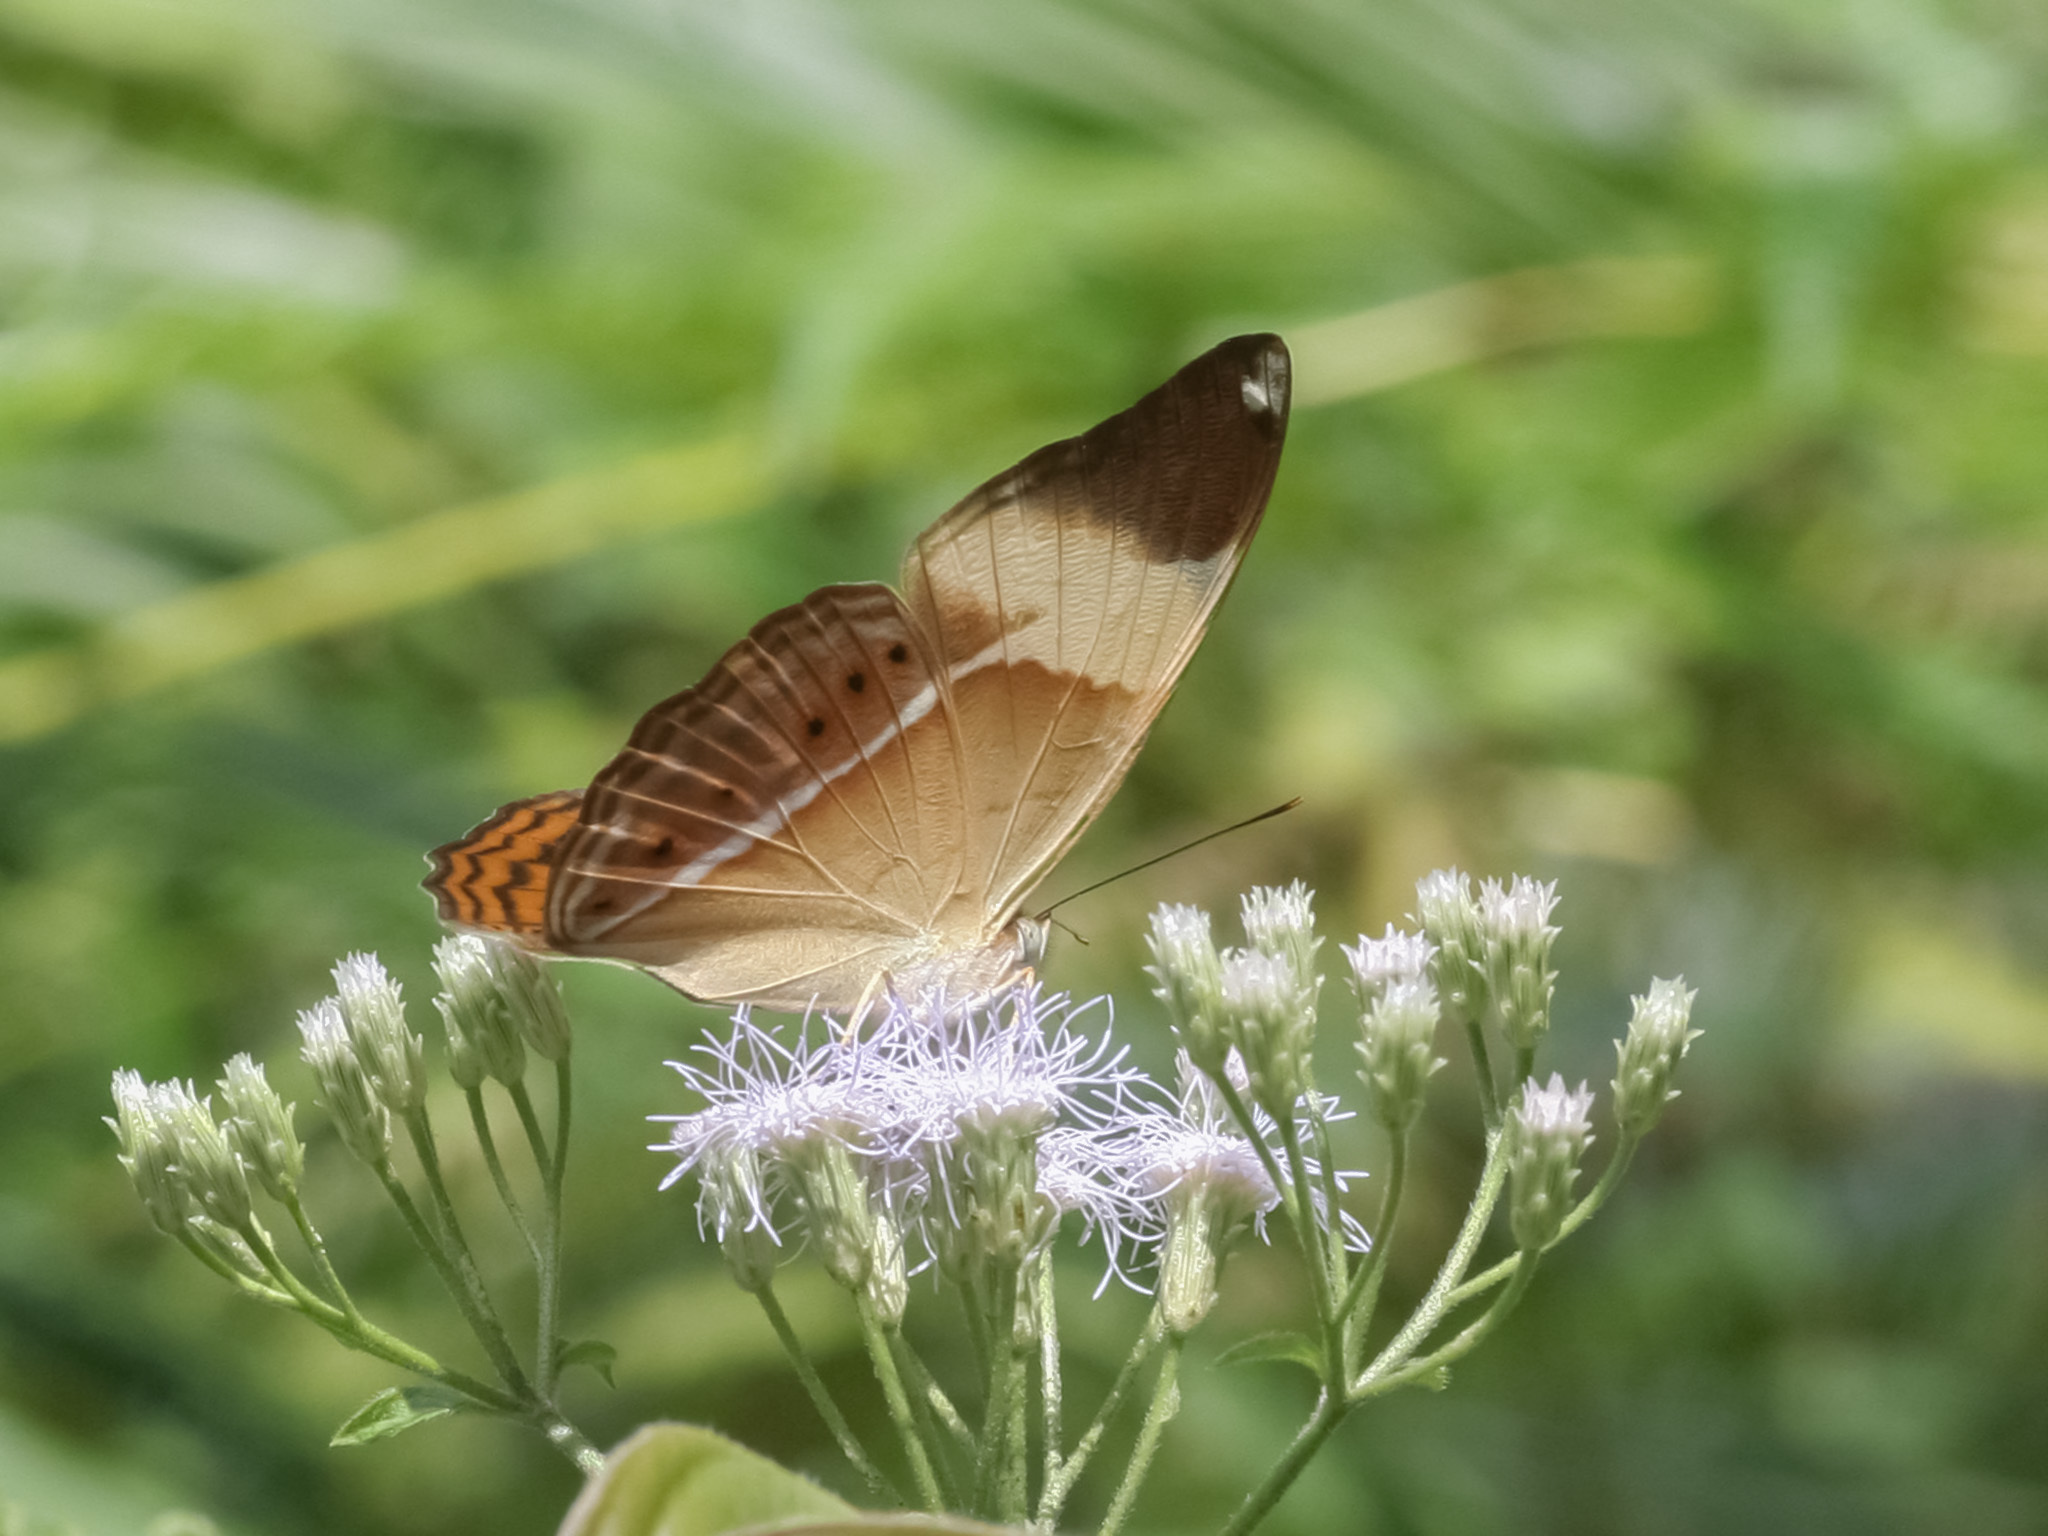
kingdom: Animalia
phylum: Arthropoda
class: Insecta
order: Lepidoptera
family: Nymphalidae
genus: Cirrochroa
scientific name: Cirrochroa orissa
